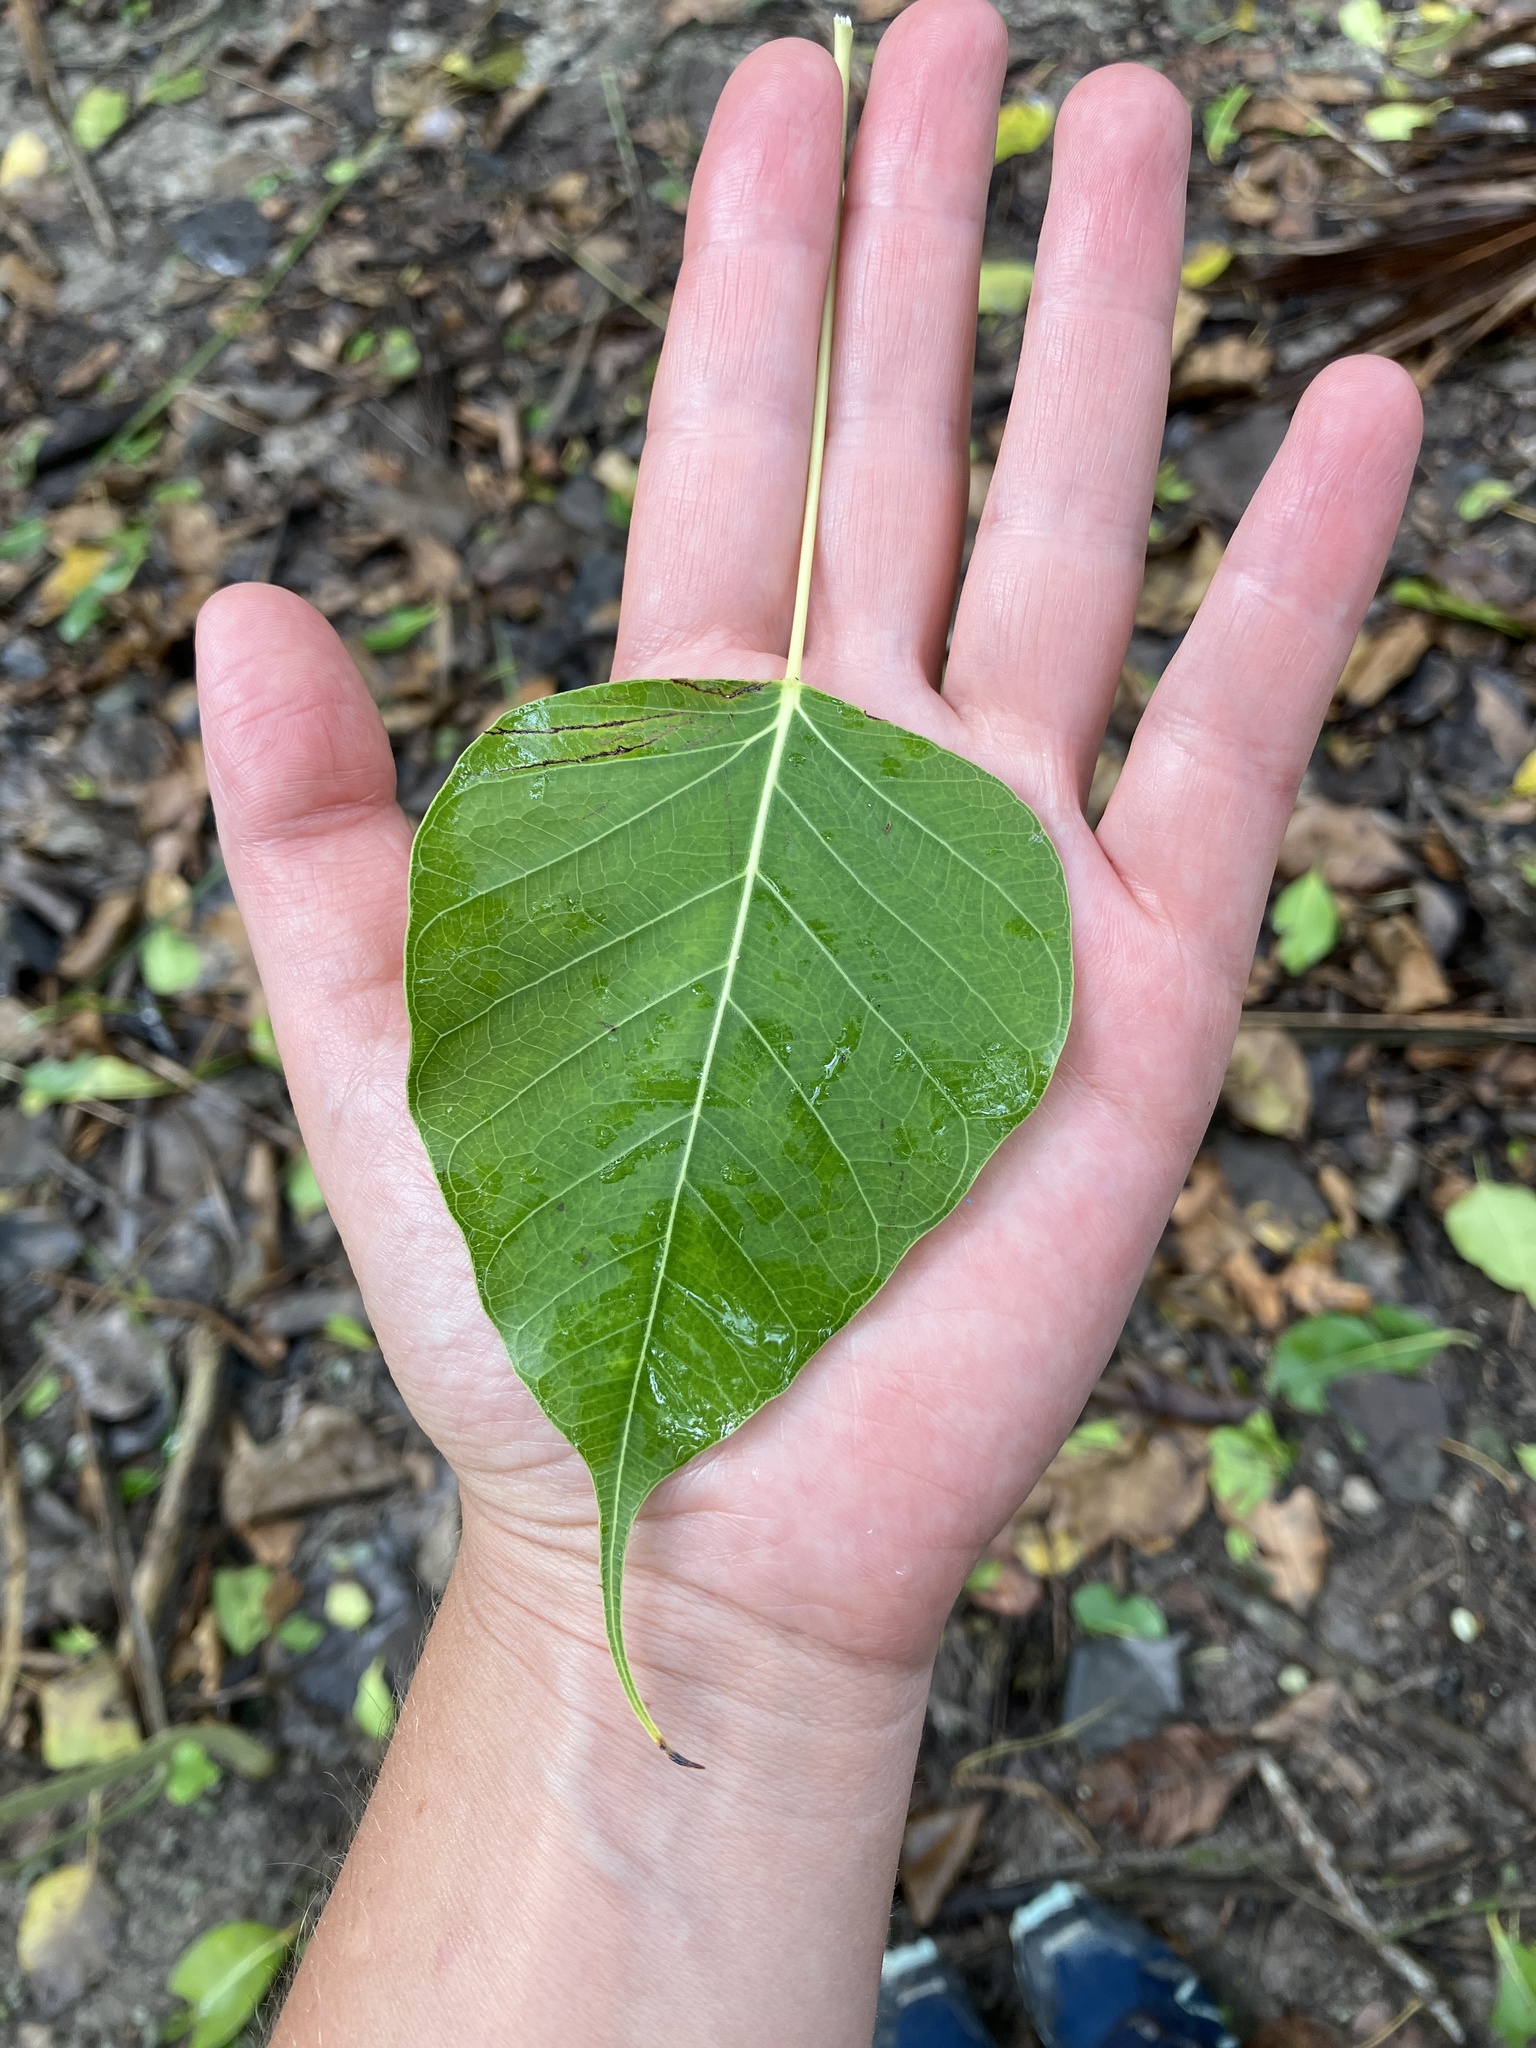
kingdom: Plantae
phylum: Tracheophyta
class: Magnoliopsida
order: Rosales
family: Moraceae
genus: Ficus
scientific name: Ficus religiosa
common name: Bodhi tree
